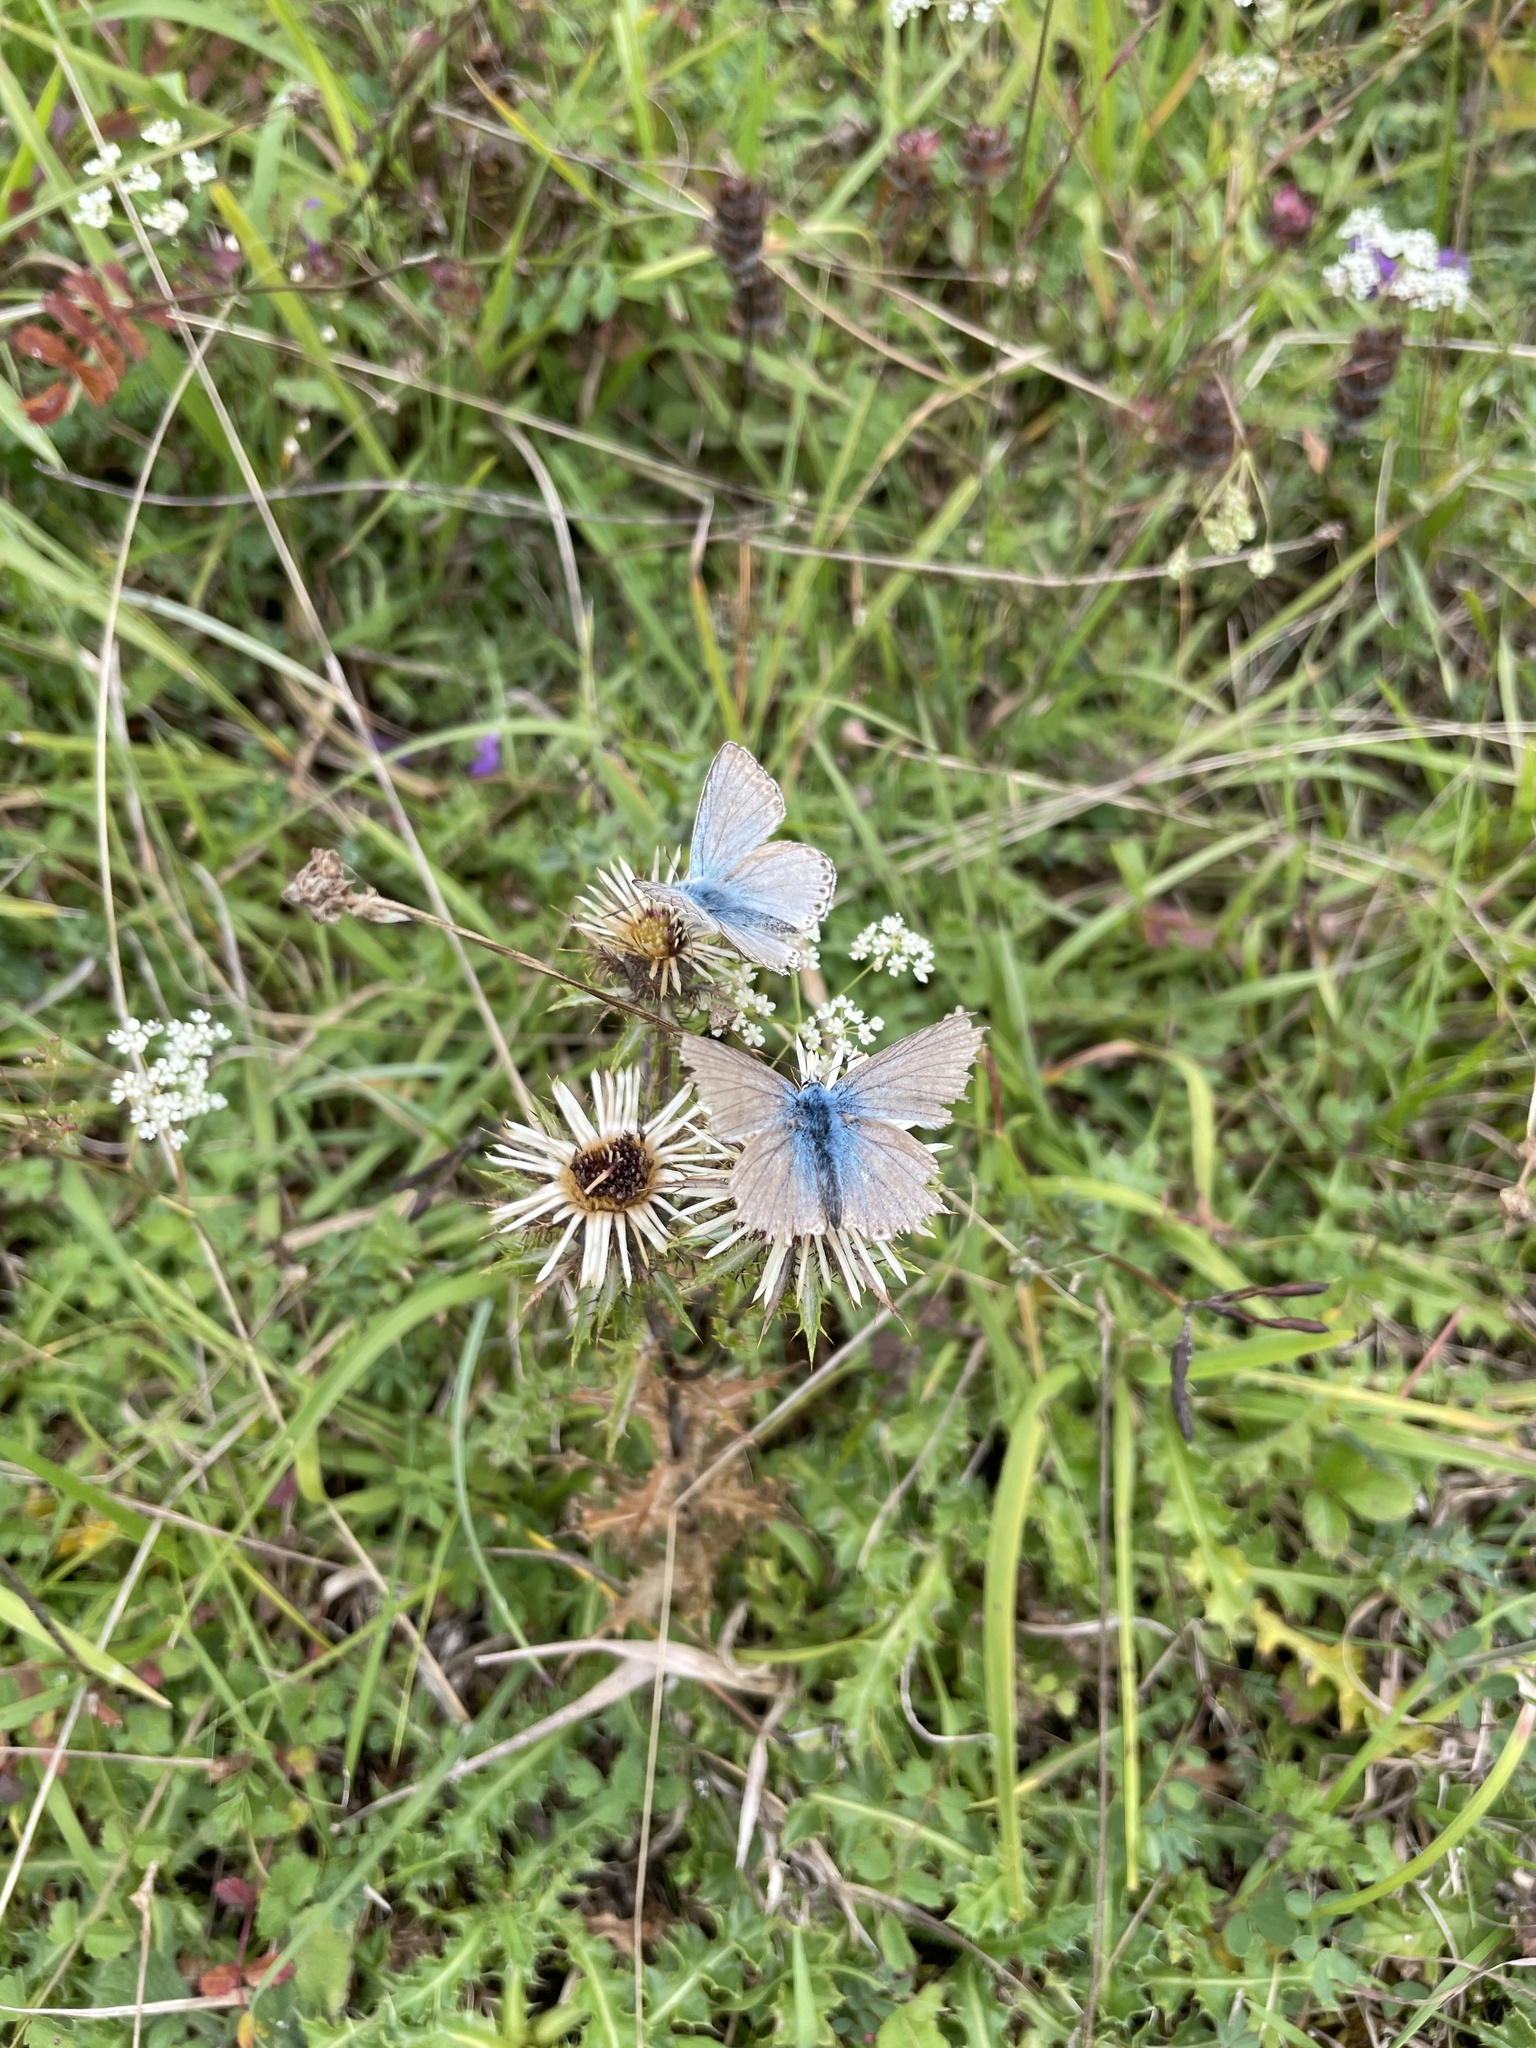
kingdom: Animalia
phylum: Arthropoda
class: Insecta
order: Lepidoptera
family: Lycaenidae
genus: Lysandra
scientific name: Lysandra coridon
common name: Chalkhill blue
